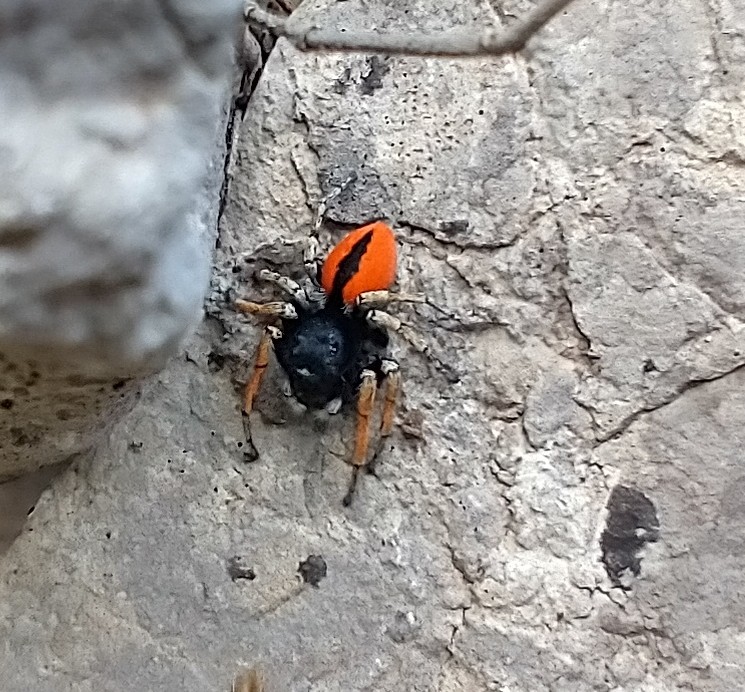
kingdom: Animalia
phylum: Arthropoda
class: Arachnida
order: Araneae
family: Salticidae
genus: Philaeus
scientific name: Philaeus chrysops
